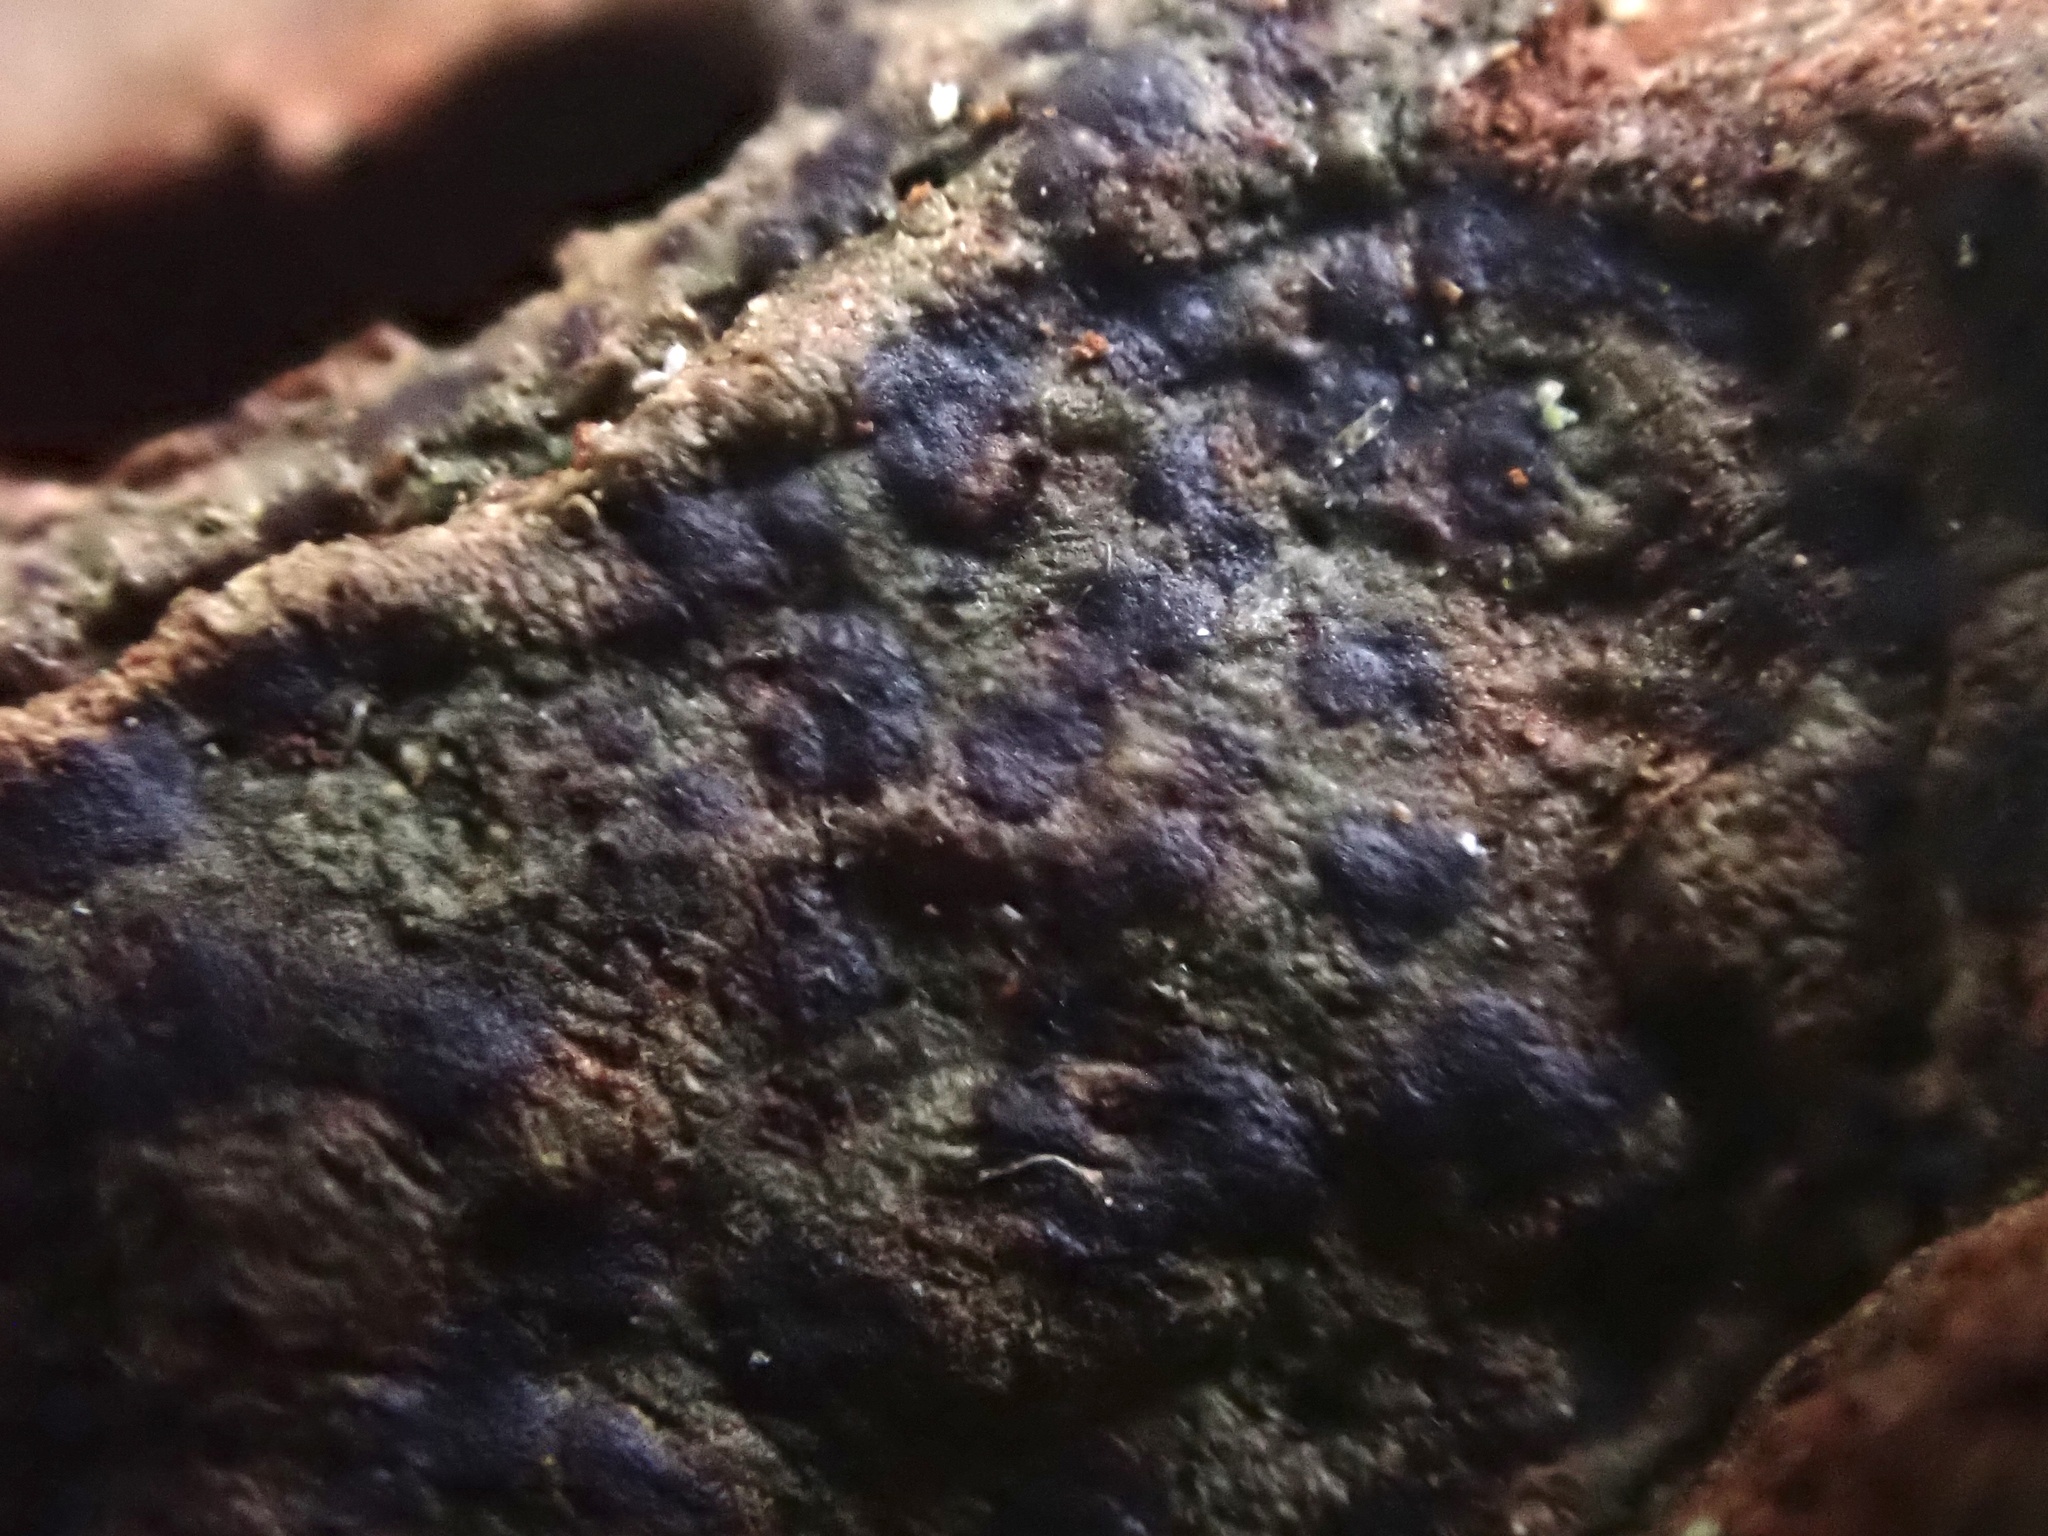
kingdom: Fungi
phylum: Ascomycota
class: Arthoniomycetes
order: Arthoniales
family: Arthoniaceae
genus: Diarthonis
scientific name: Diarthonis spadicea
